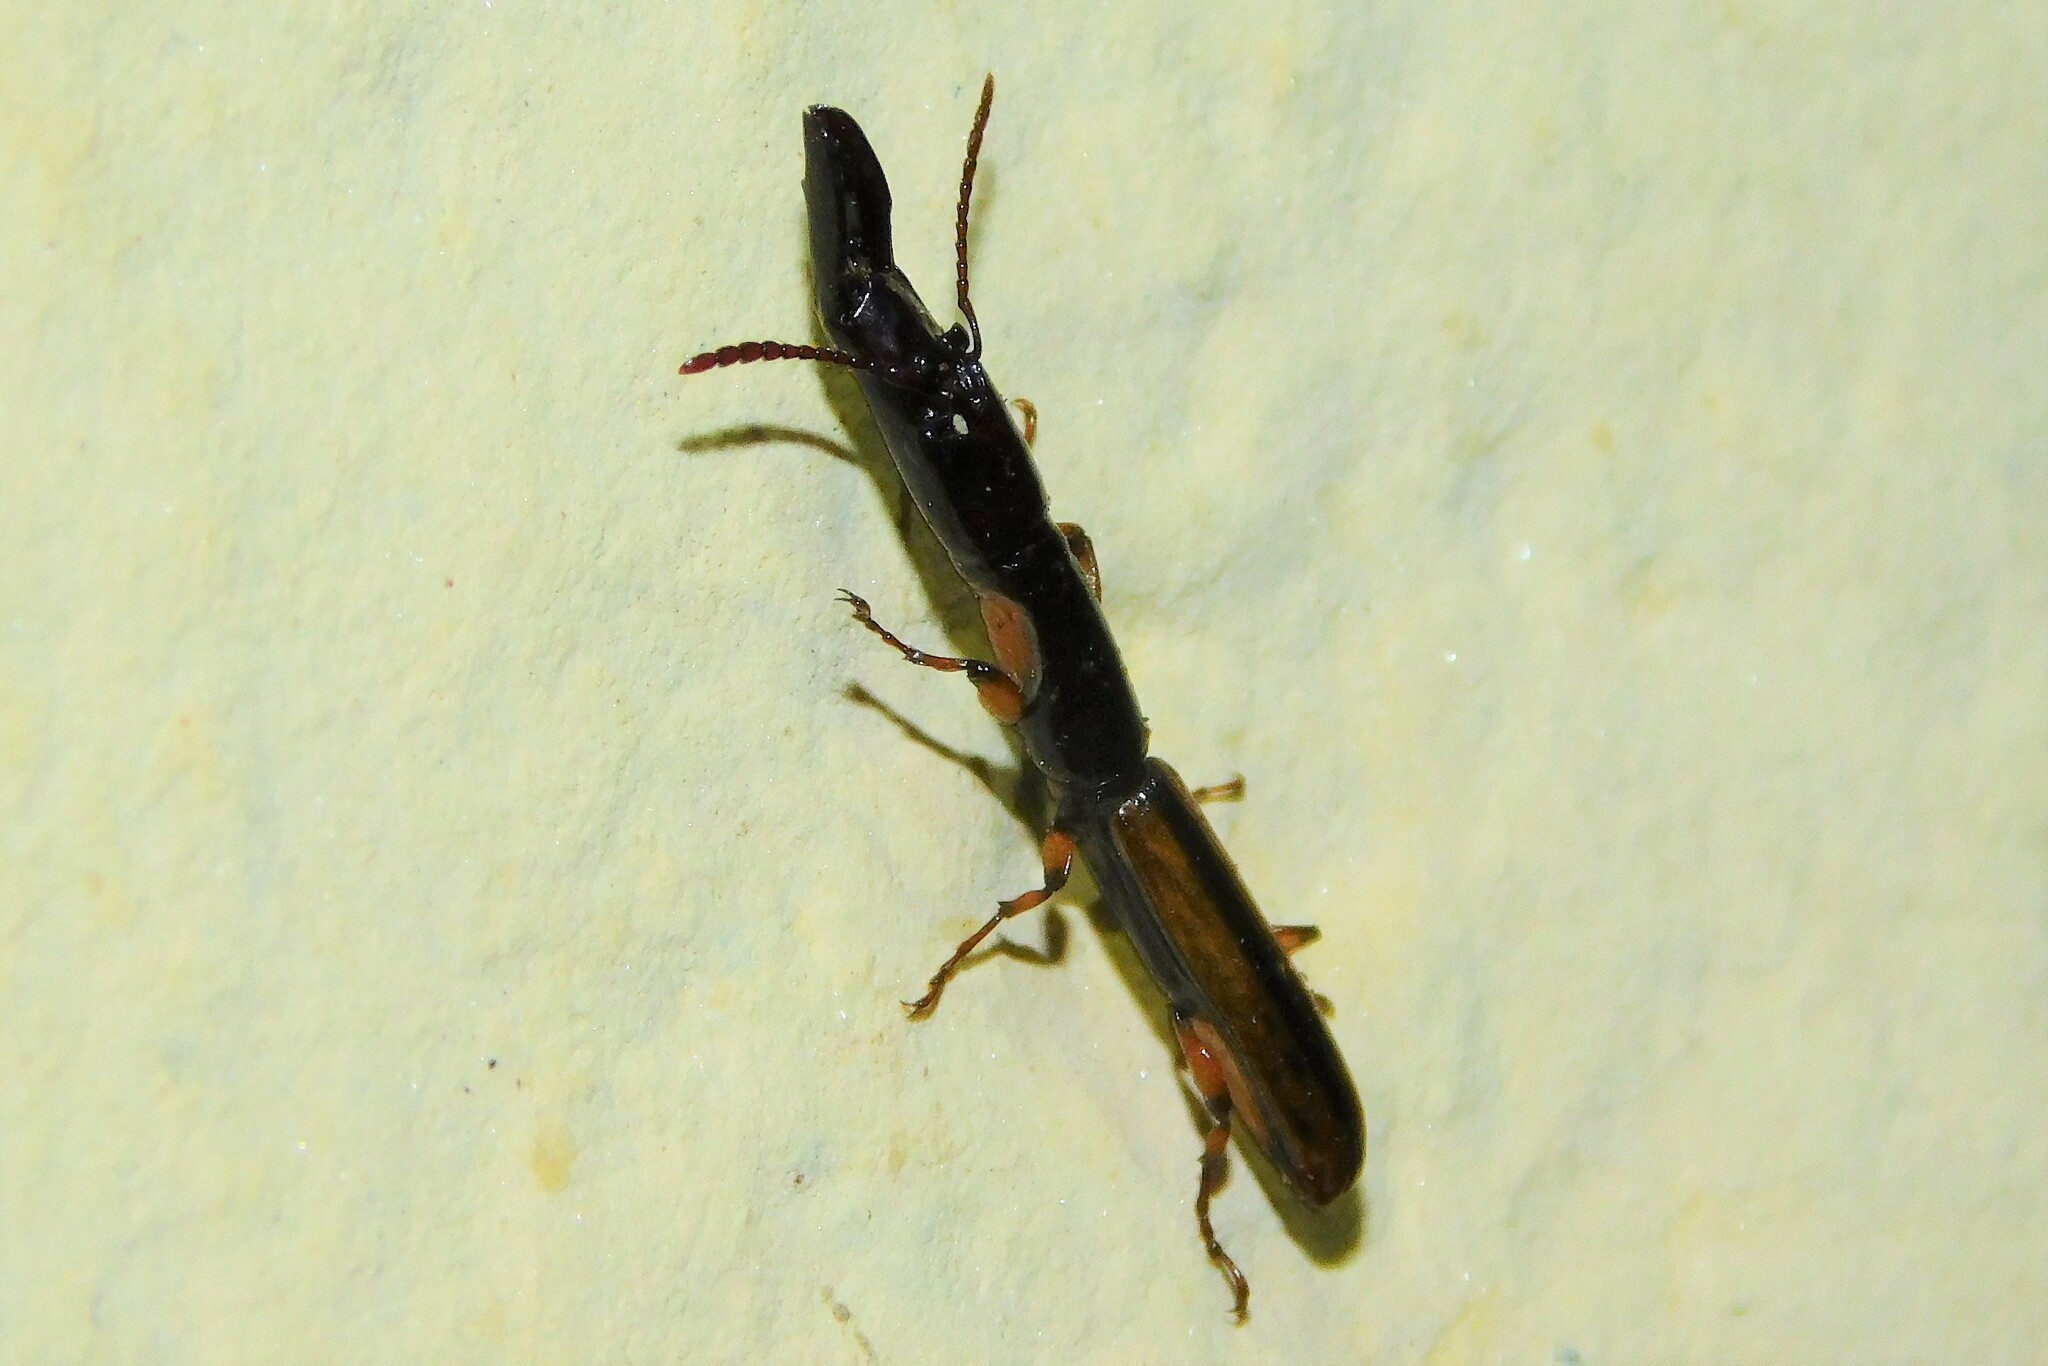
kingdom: Animalia
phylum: Arthropoda
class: Insecta
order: Coleoptera
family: Brentidae
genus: Bolbocranius
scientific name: Bolbocranius bicolor
